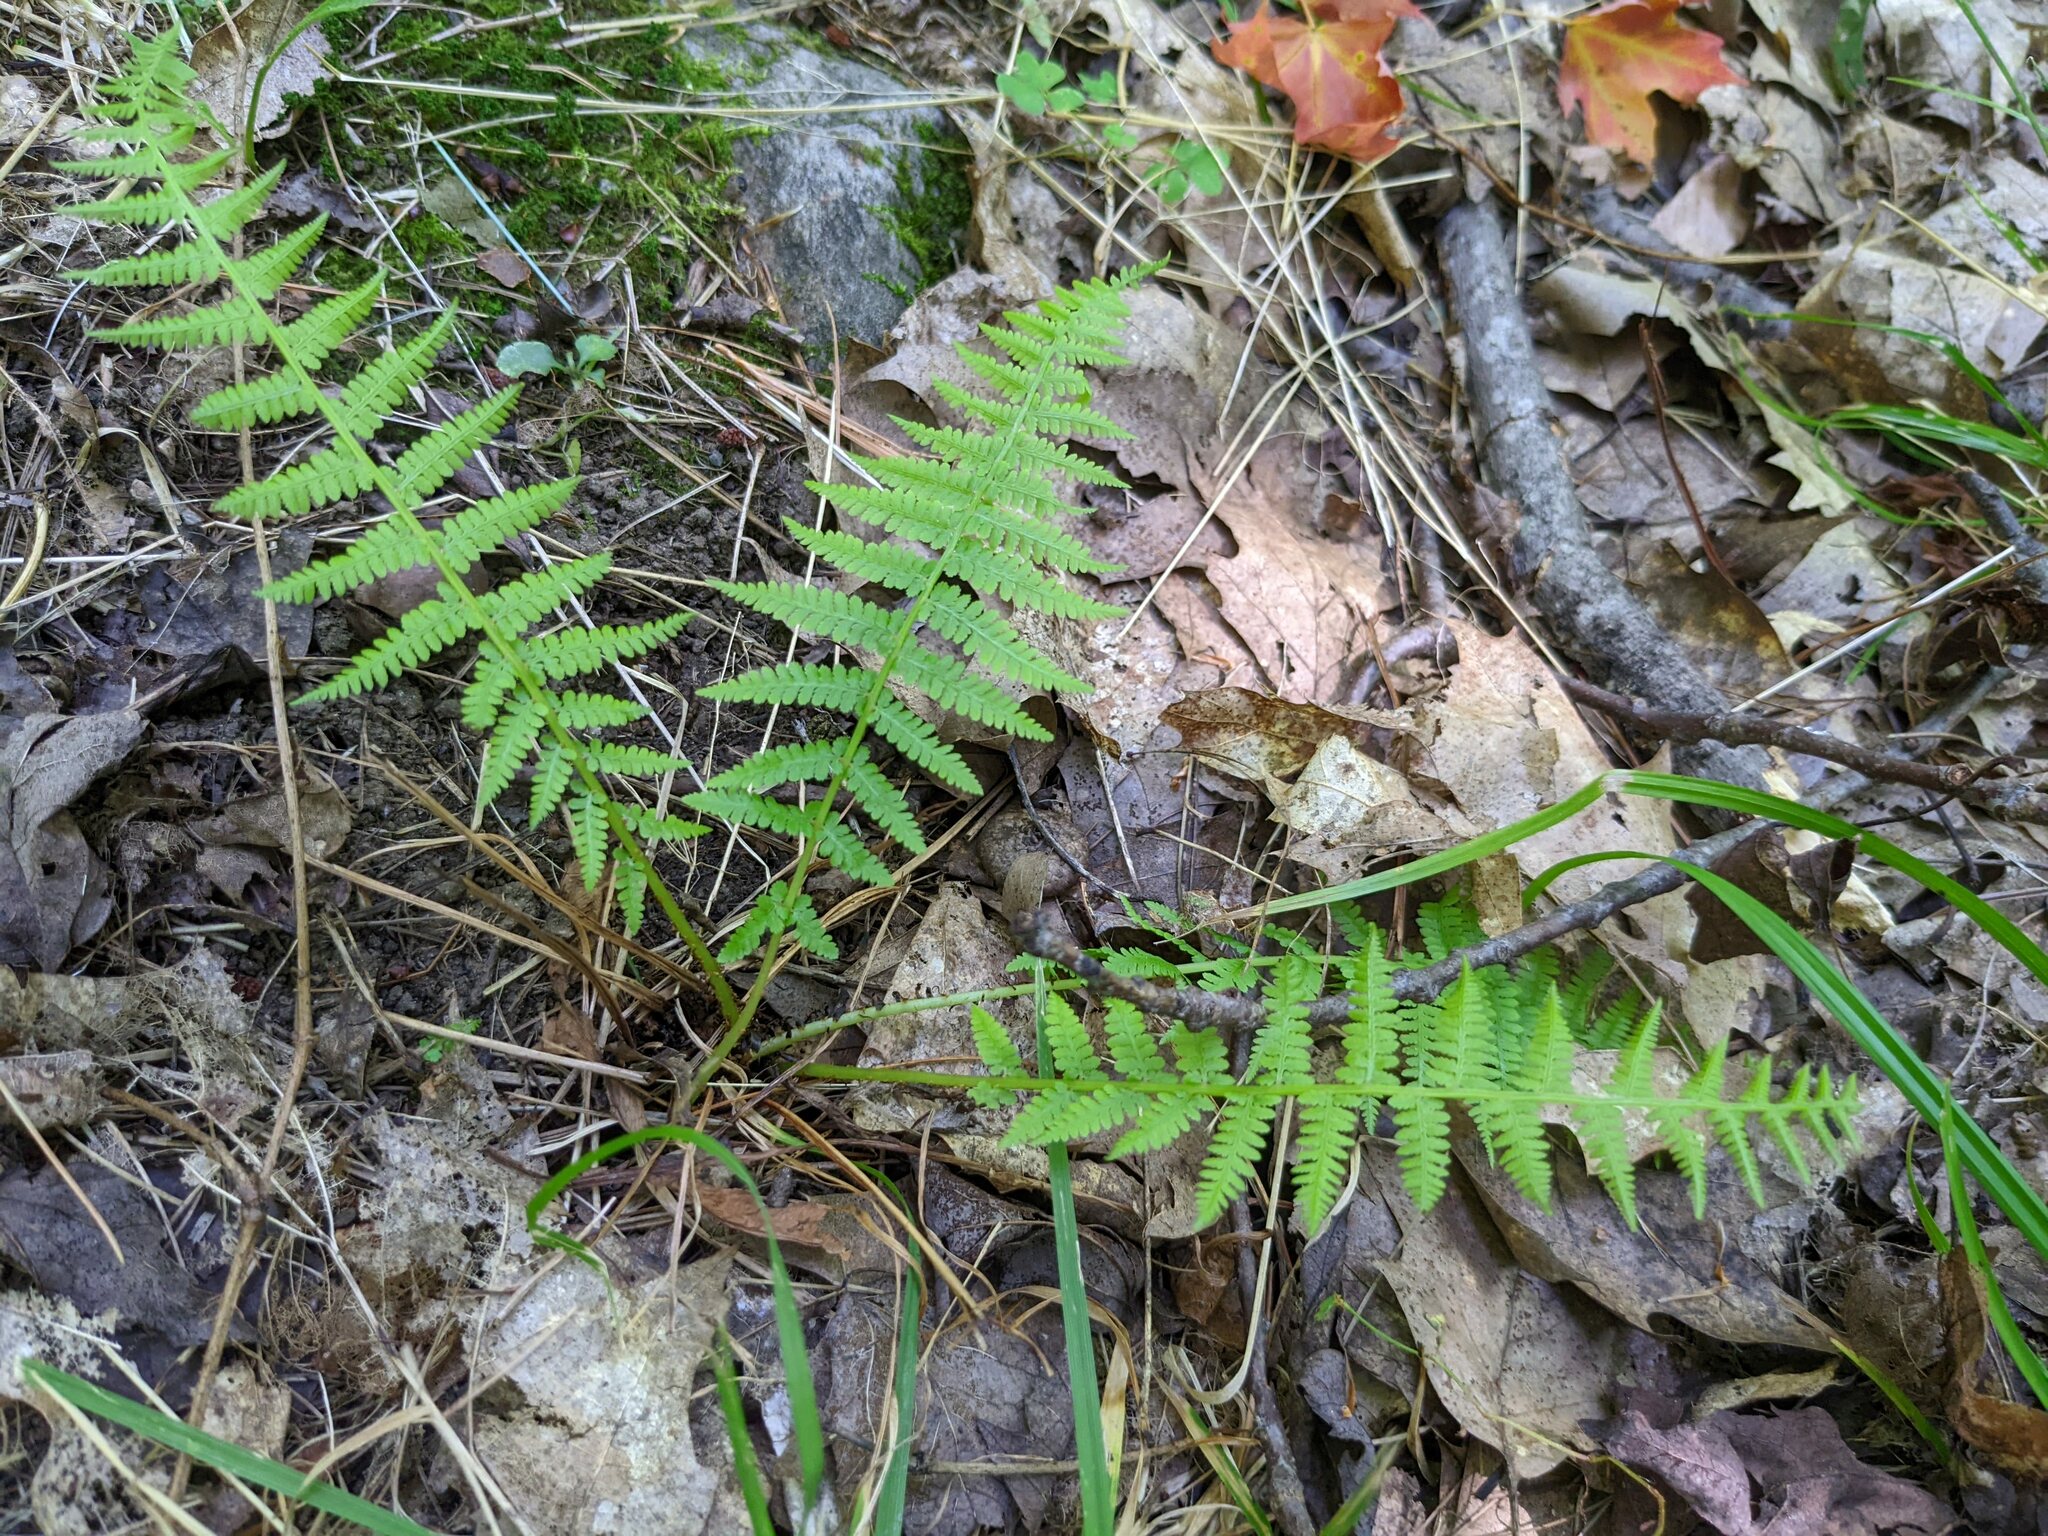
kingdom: Plantae
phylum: Tracheophyta
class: Polypodiopsida
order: Polypodiales
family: Athyriaceae
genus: Athyrium
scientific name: Athyrium angustum
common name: Northern lady fern
